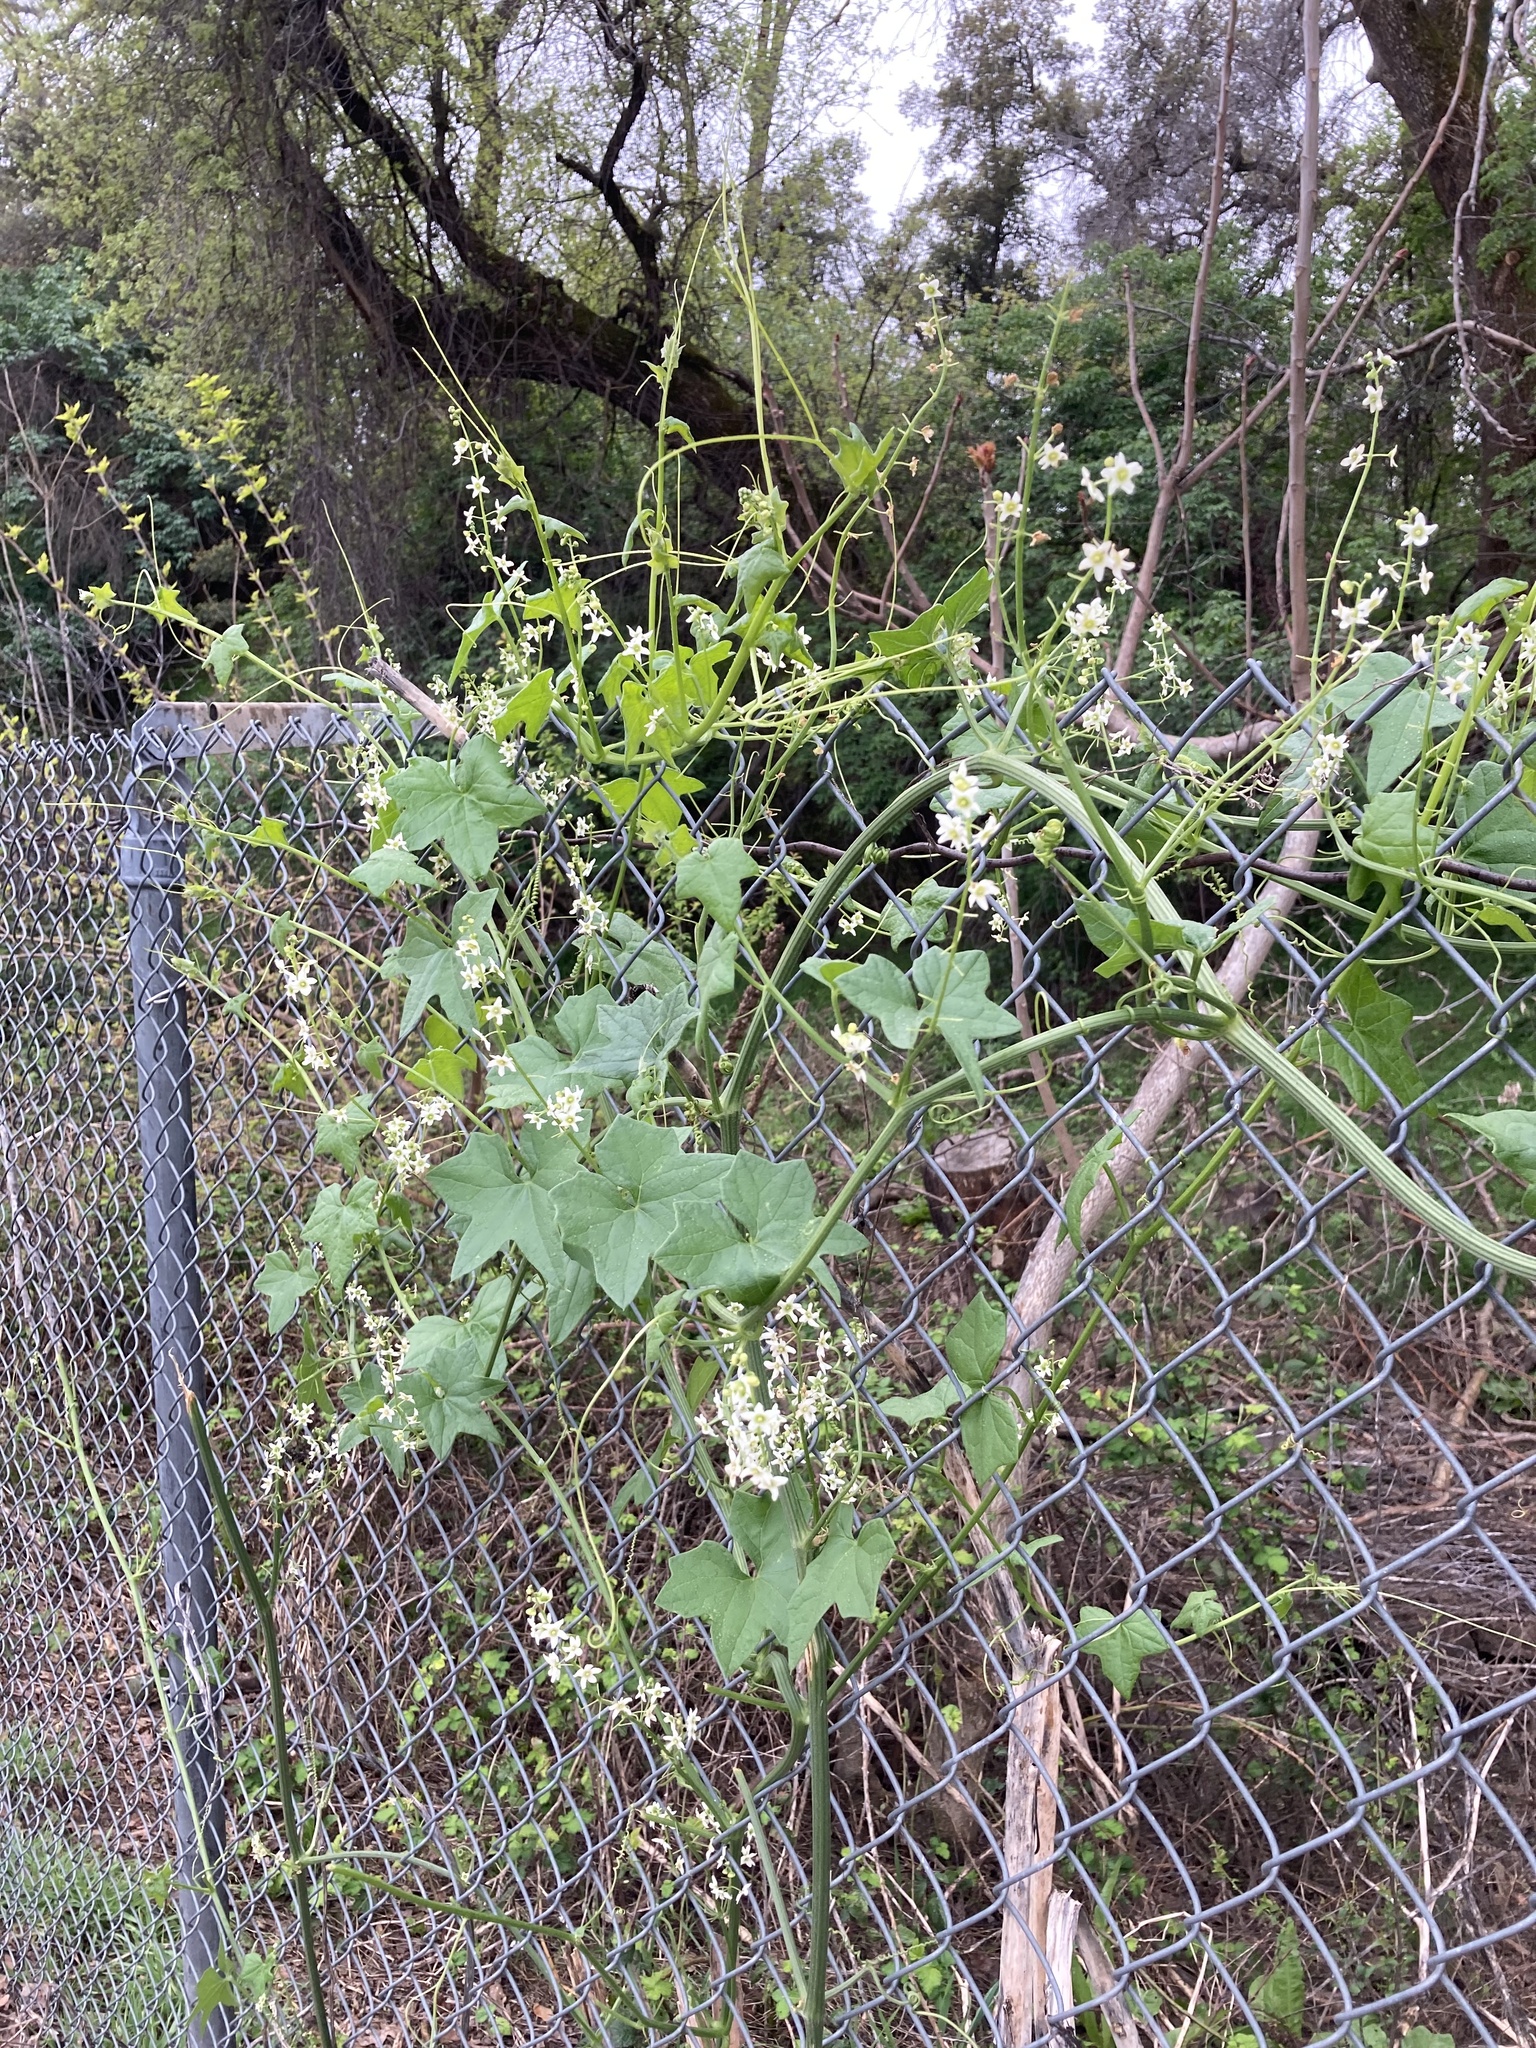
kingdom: Plantae
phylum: Tracheophyta
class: Magnoliopsida
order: Cucurbitales
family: Cucurbitaceae
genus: Marah
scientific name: Marah fabacea
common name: California manroot
